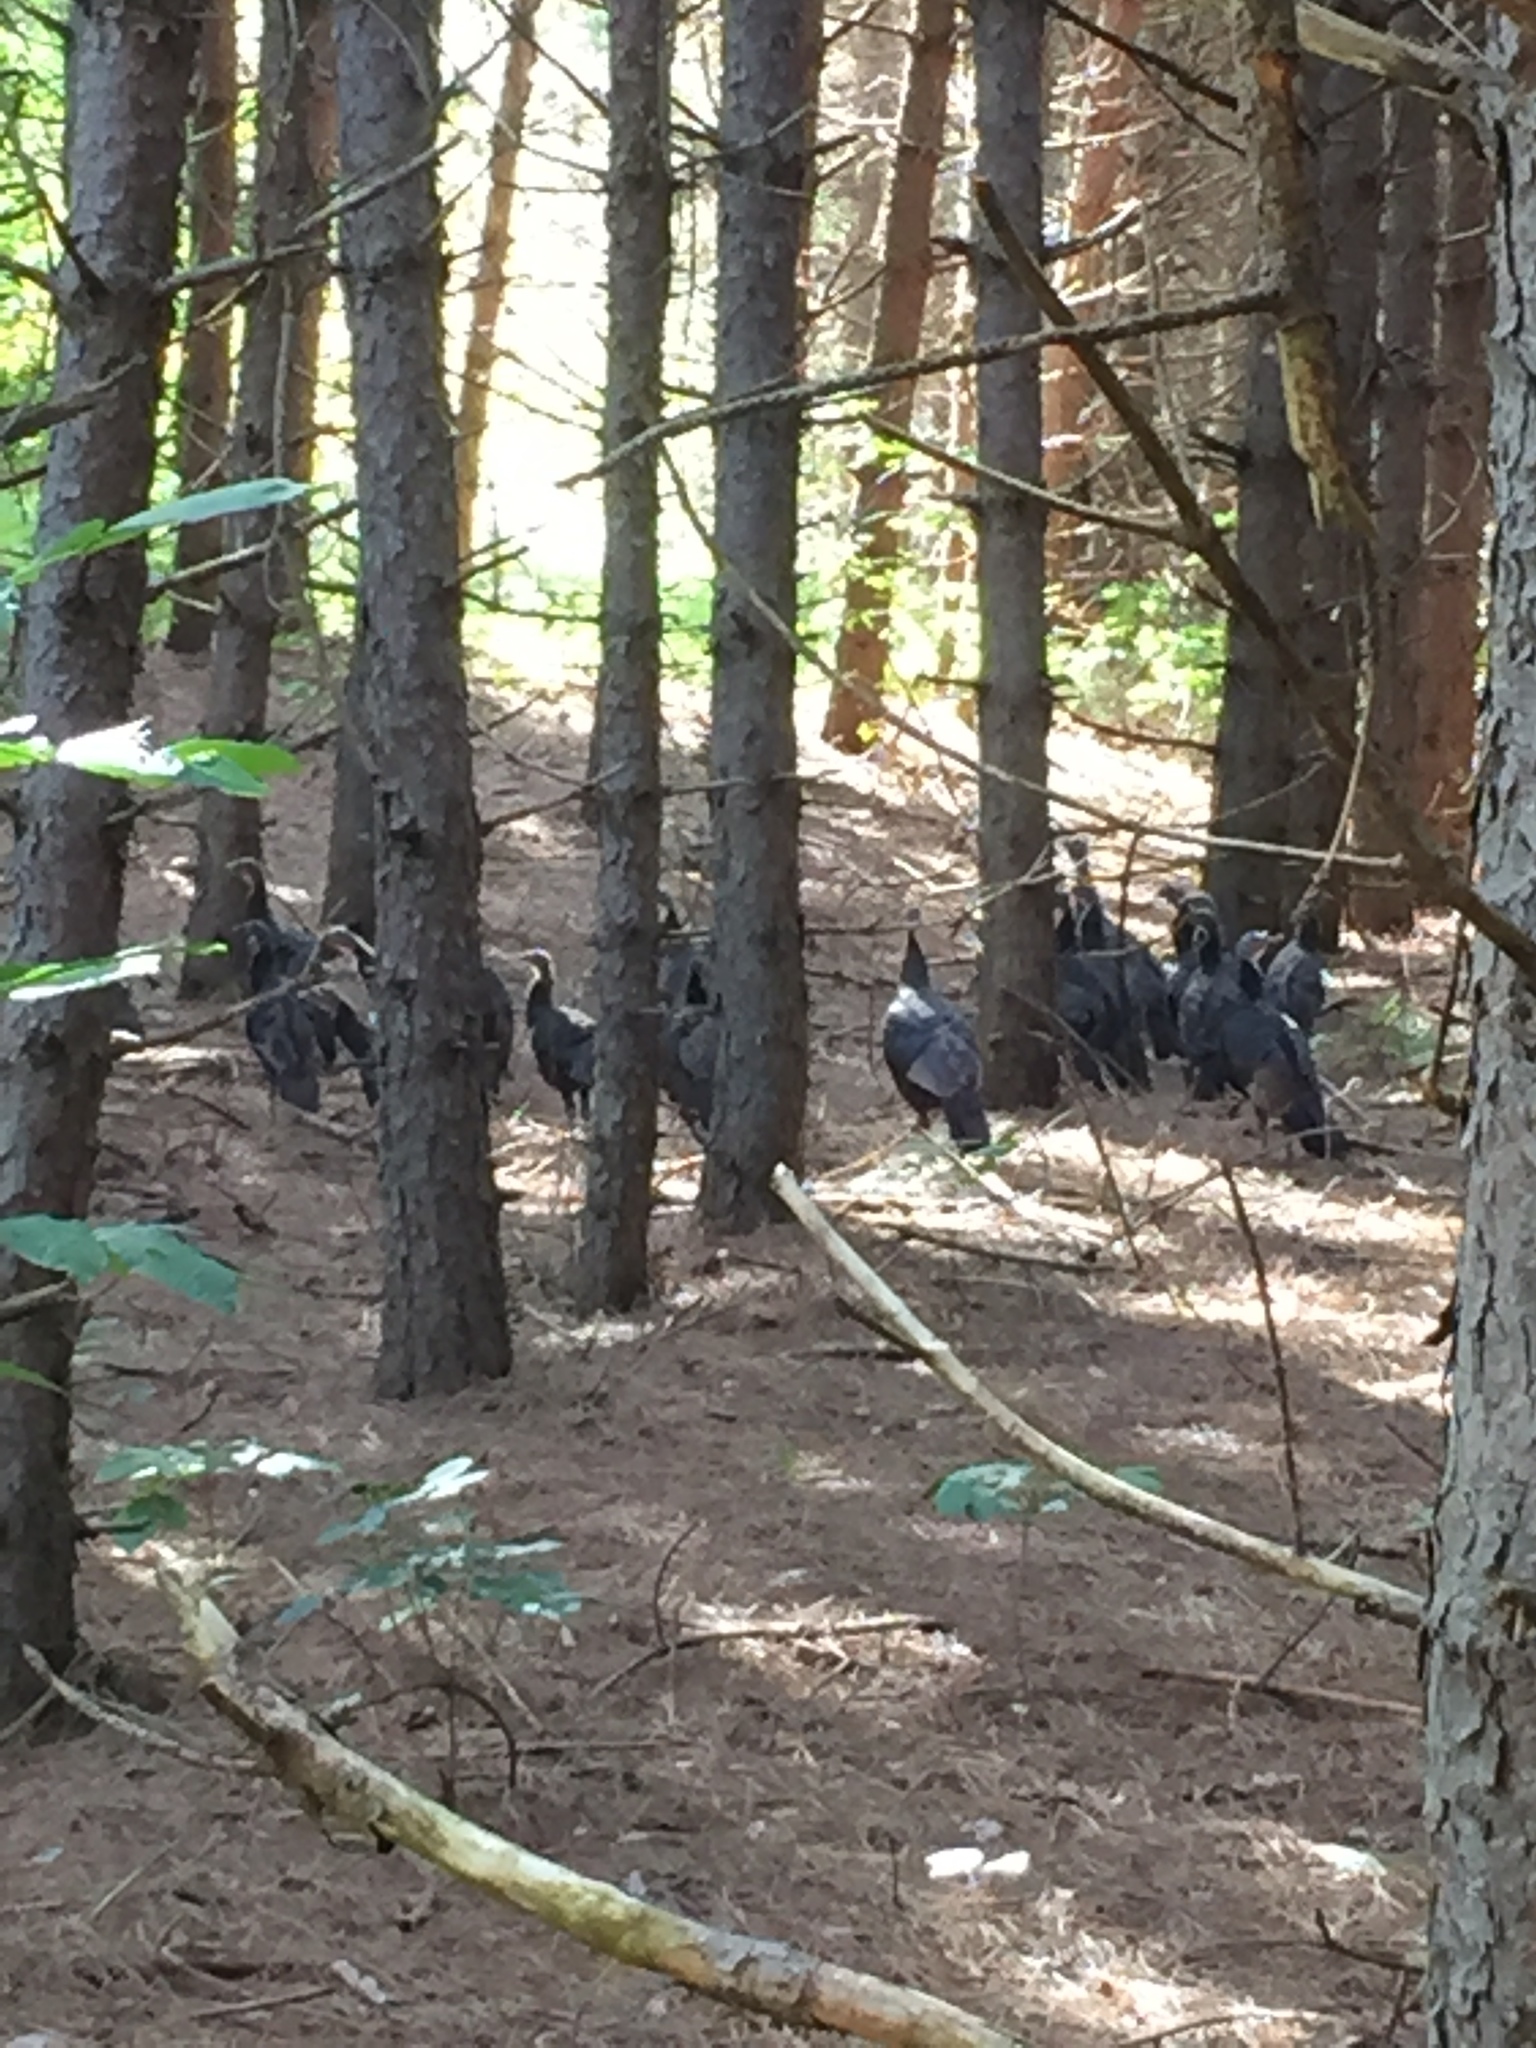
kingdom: Animalia
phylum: Chordata
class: Aves
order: Galliformes
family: Phasianidae
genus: Meleagris
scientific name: Meleagris gallopavo
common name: Wild turkey
